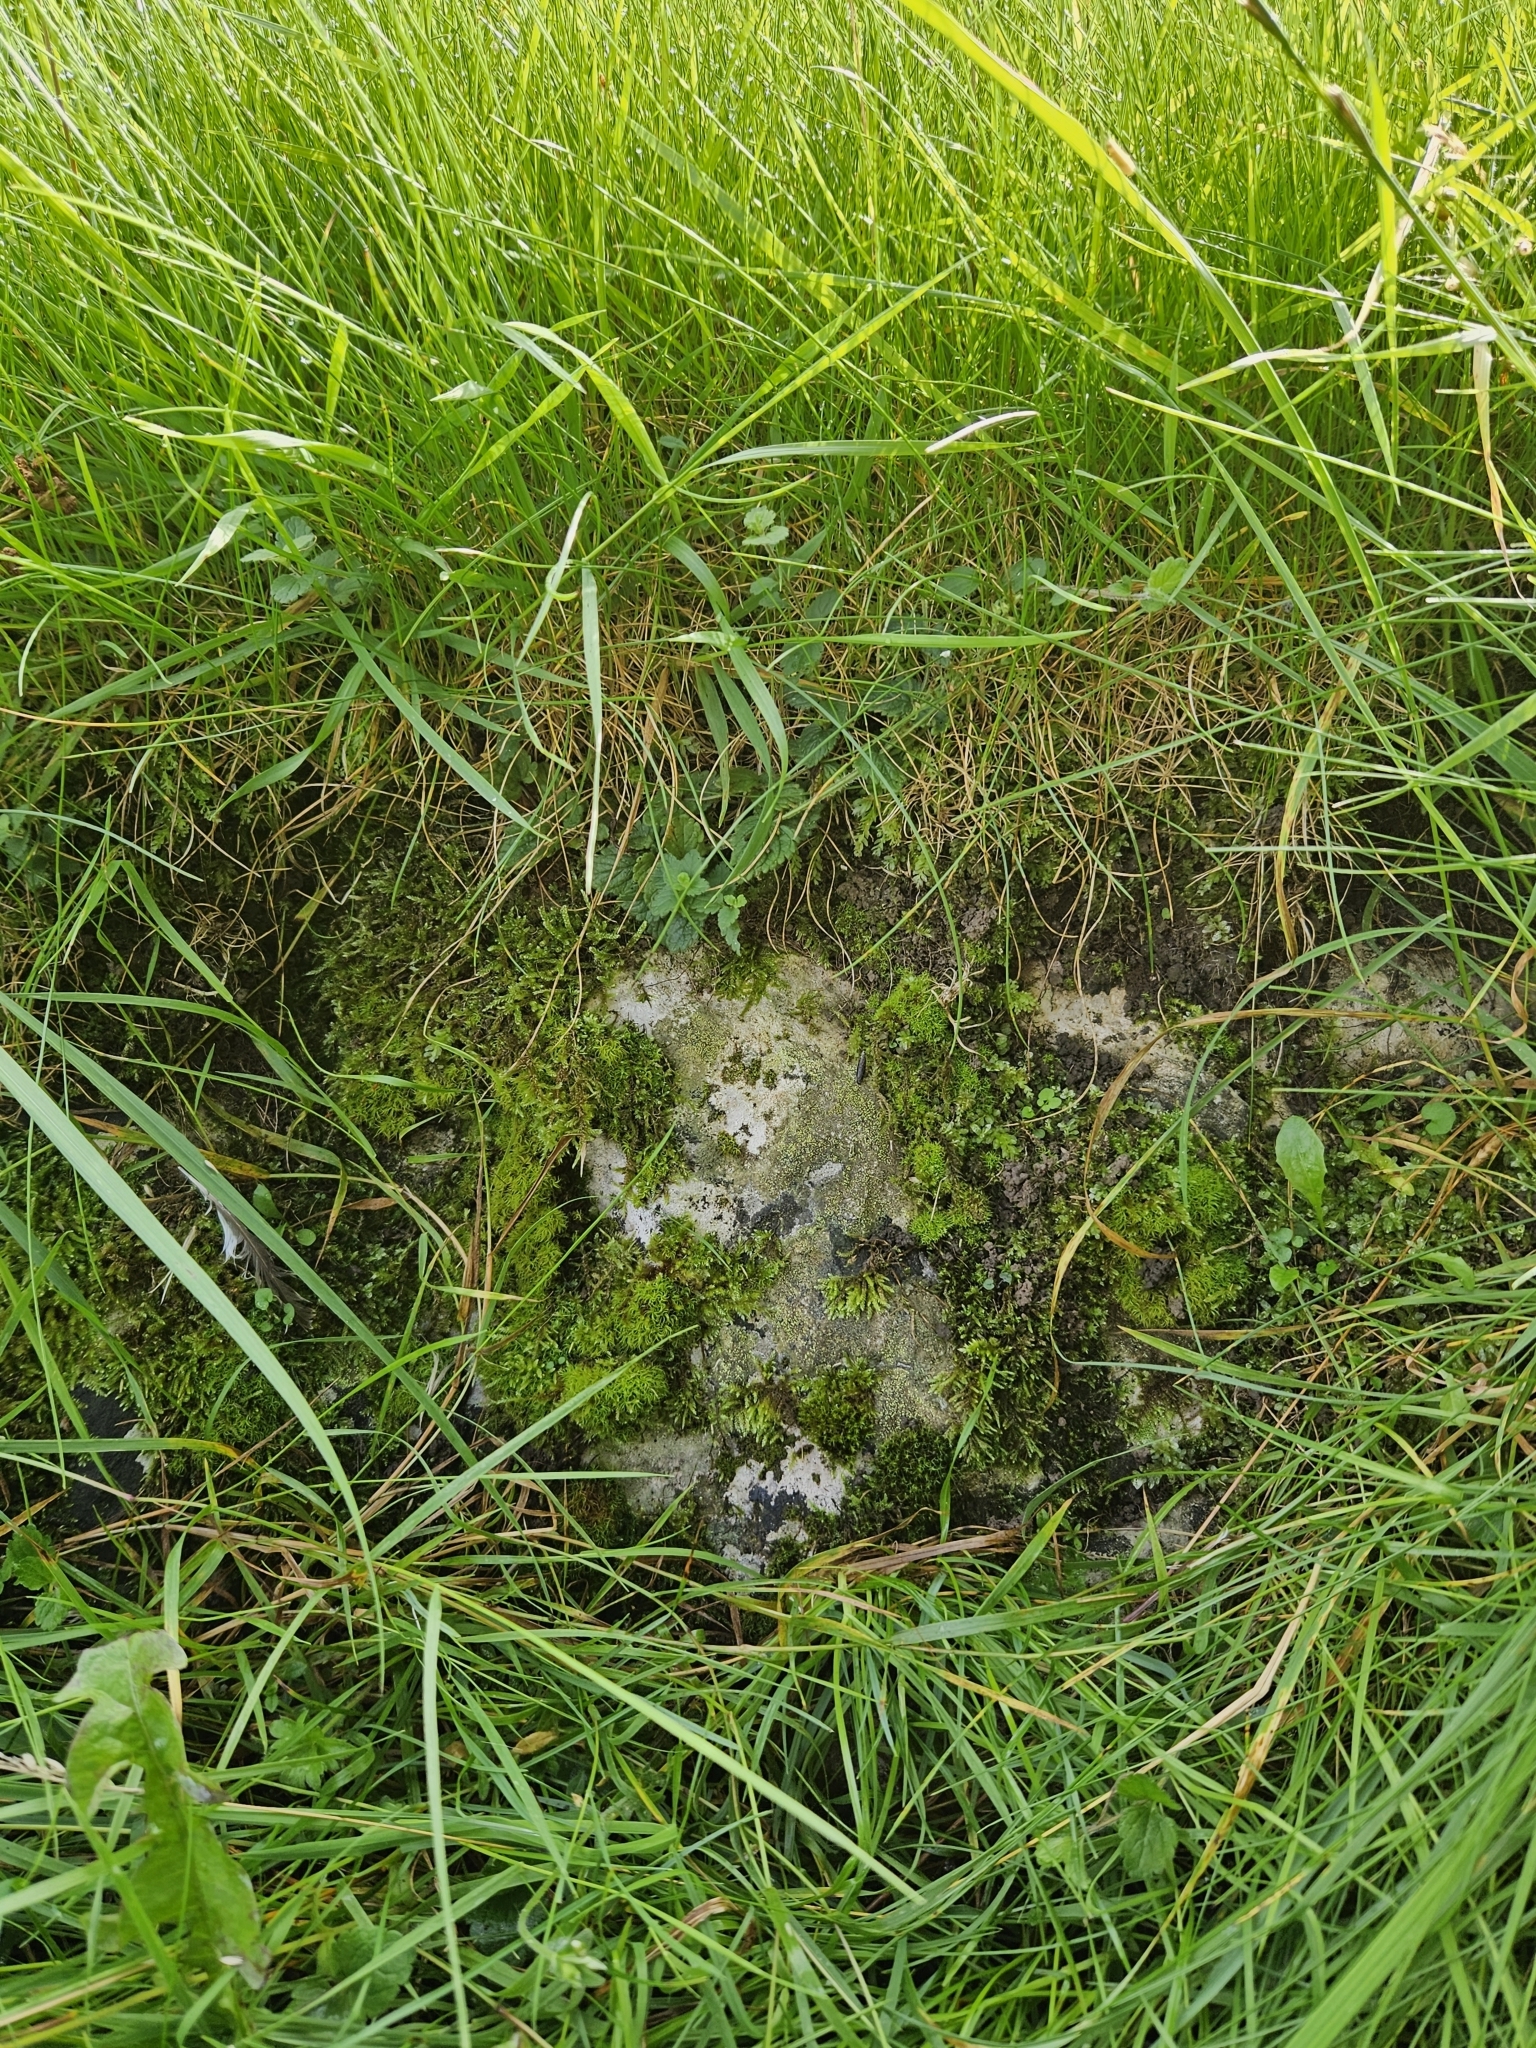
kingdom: Plantae
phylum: Bryophyta
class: Bryopsida
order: Hypnales
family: Brachytheciaceae
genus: Rhynchostegium
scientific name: Rhynchostegium murale
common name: Wall feather-moss
